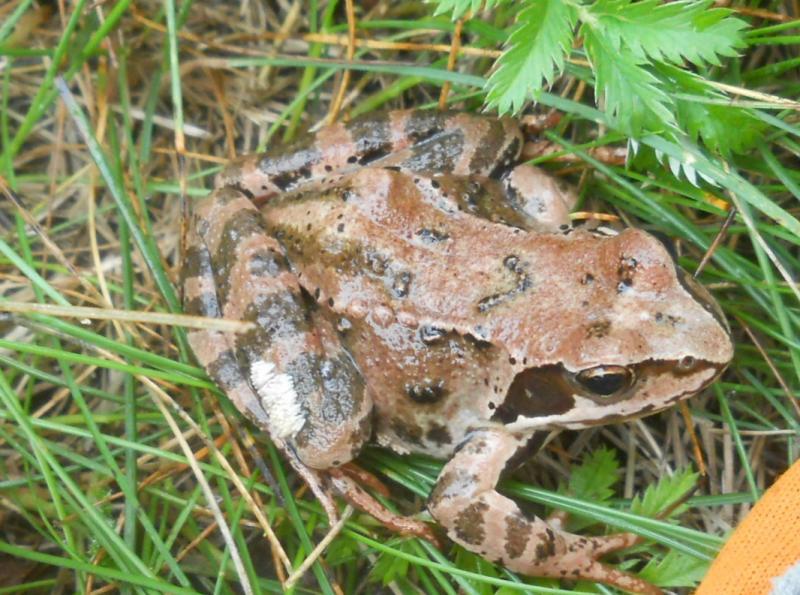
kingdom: Animalia
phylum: Chordata
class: Amphibia
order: Anura
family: Ranidae
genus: Rana
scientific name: Rana temporaria
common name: Common frog
